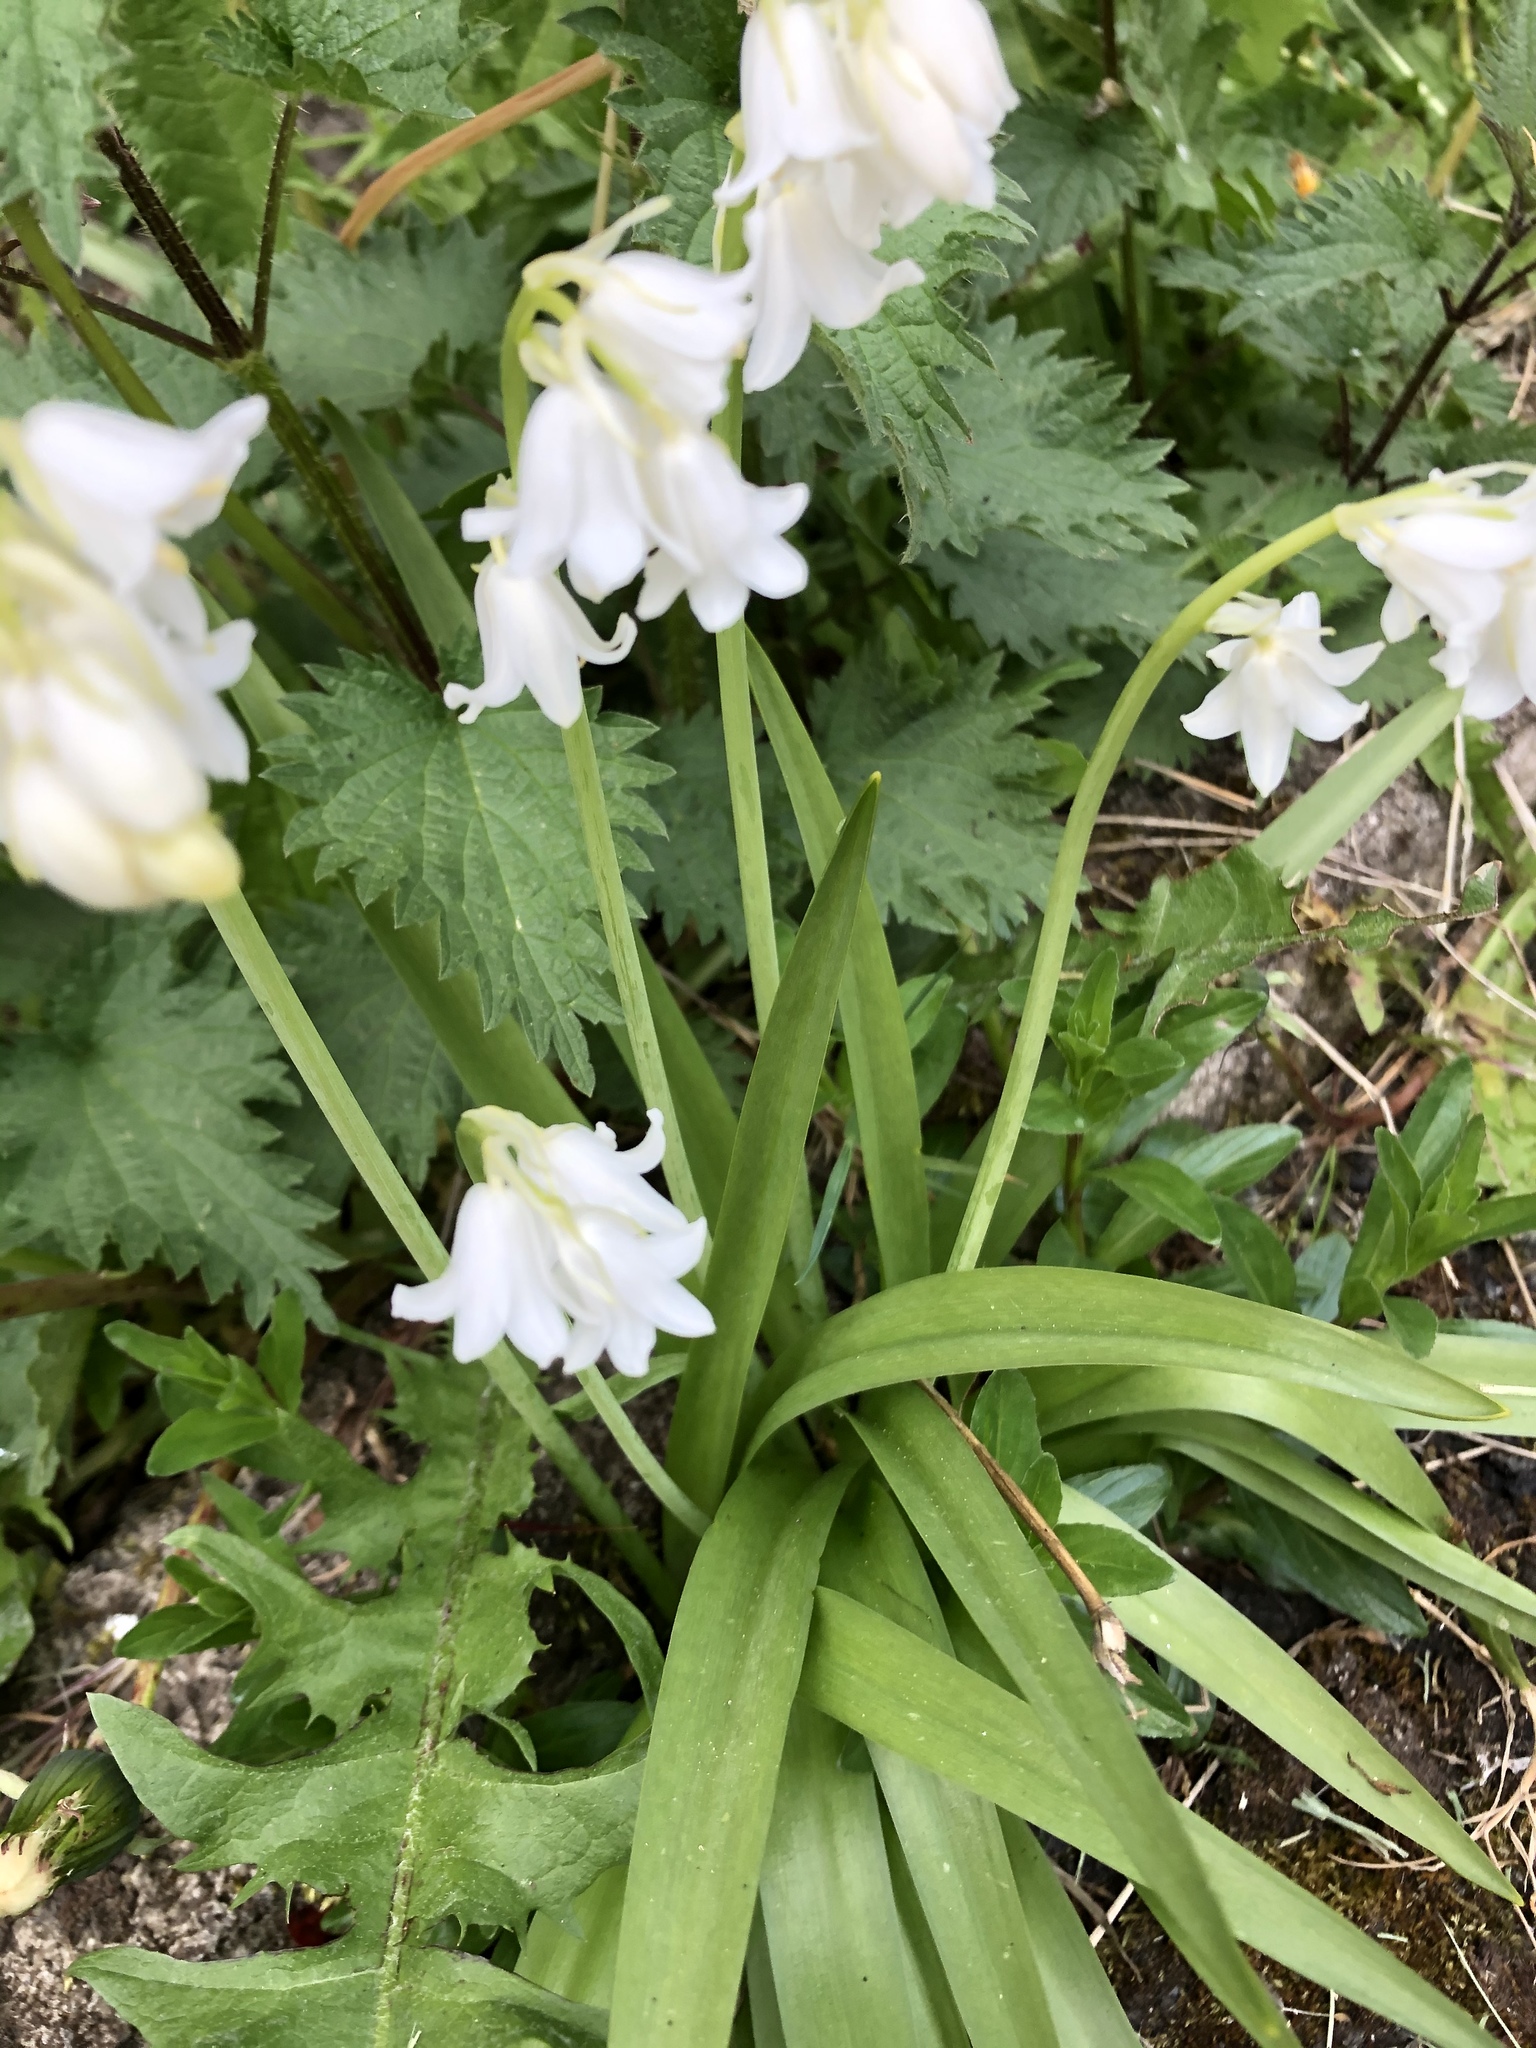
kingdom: Plantae
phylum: Tracheophyta
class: Liliopsida
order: Asparagales
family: Asparagaceae
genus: Hyacinthoides
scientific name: Hyacinthoides hispanica
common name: Spanish bluebell
